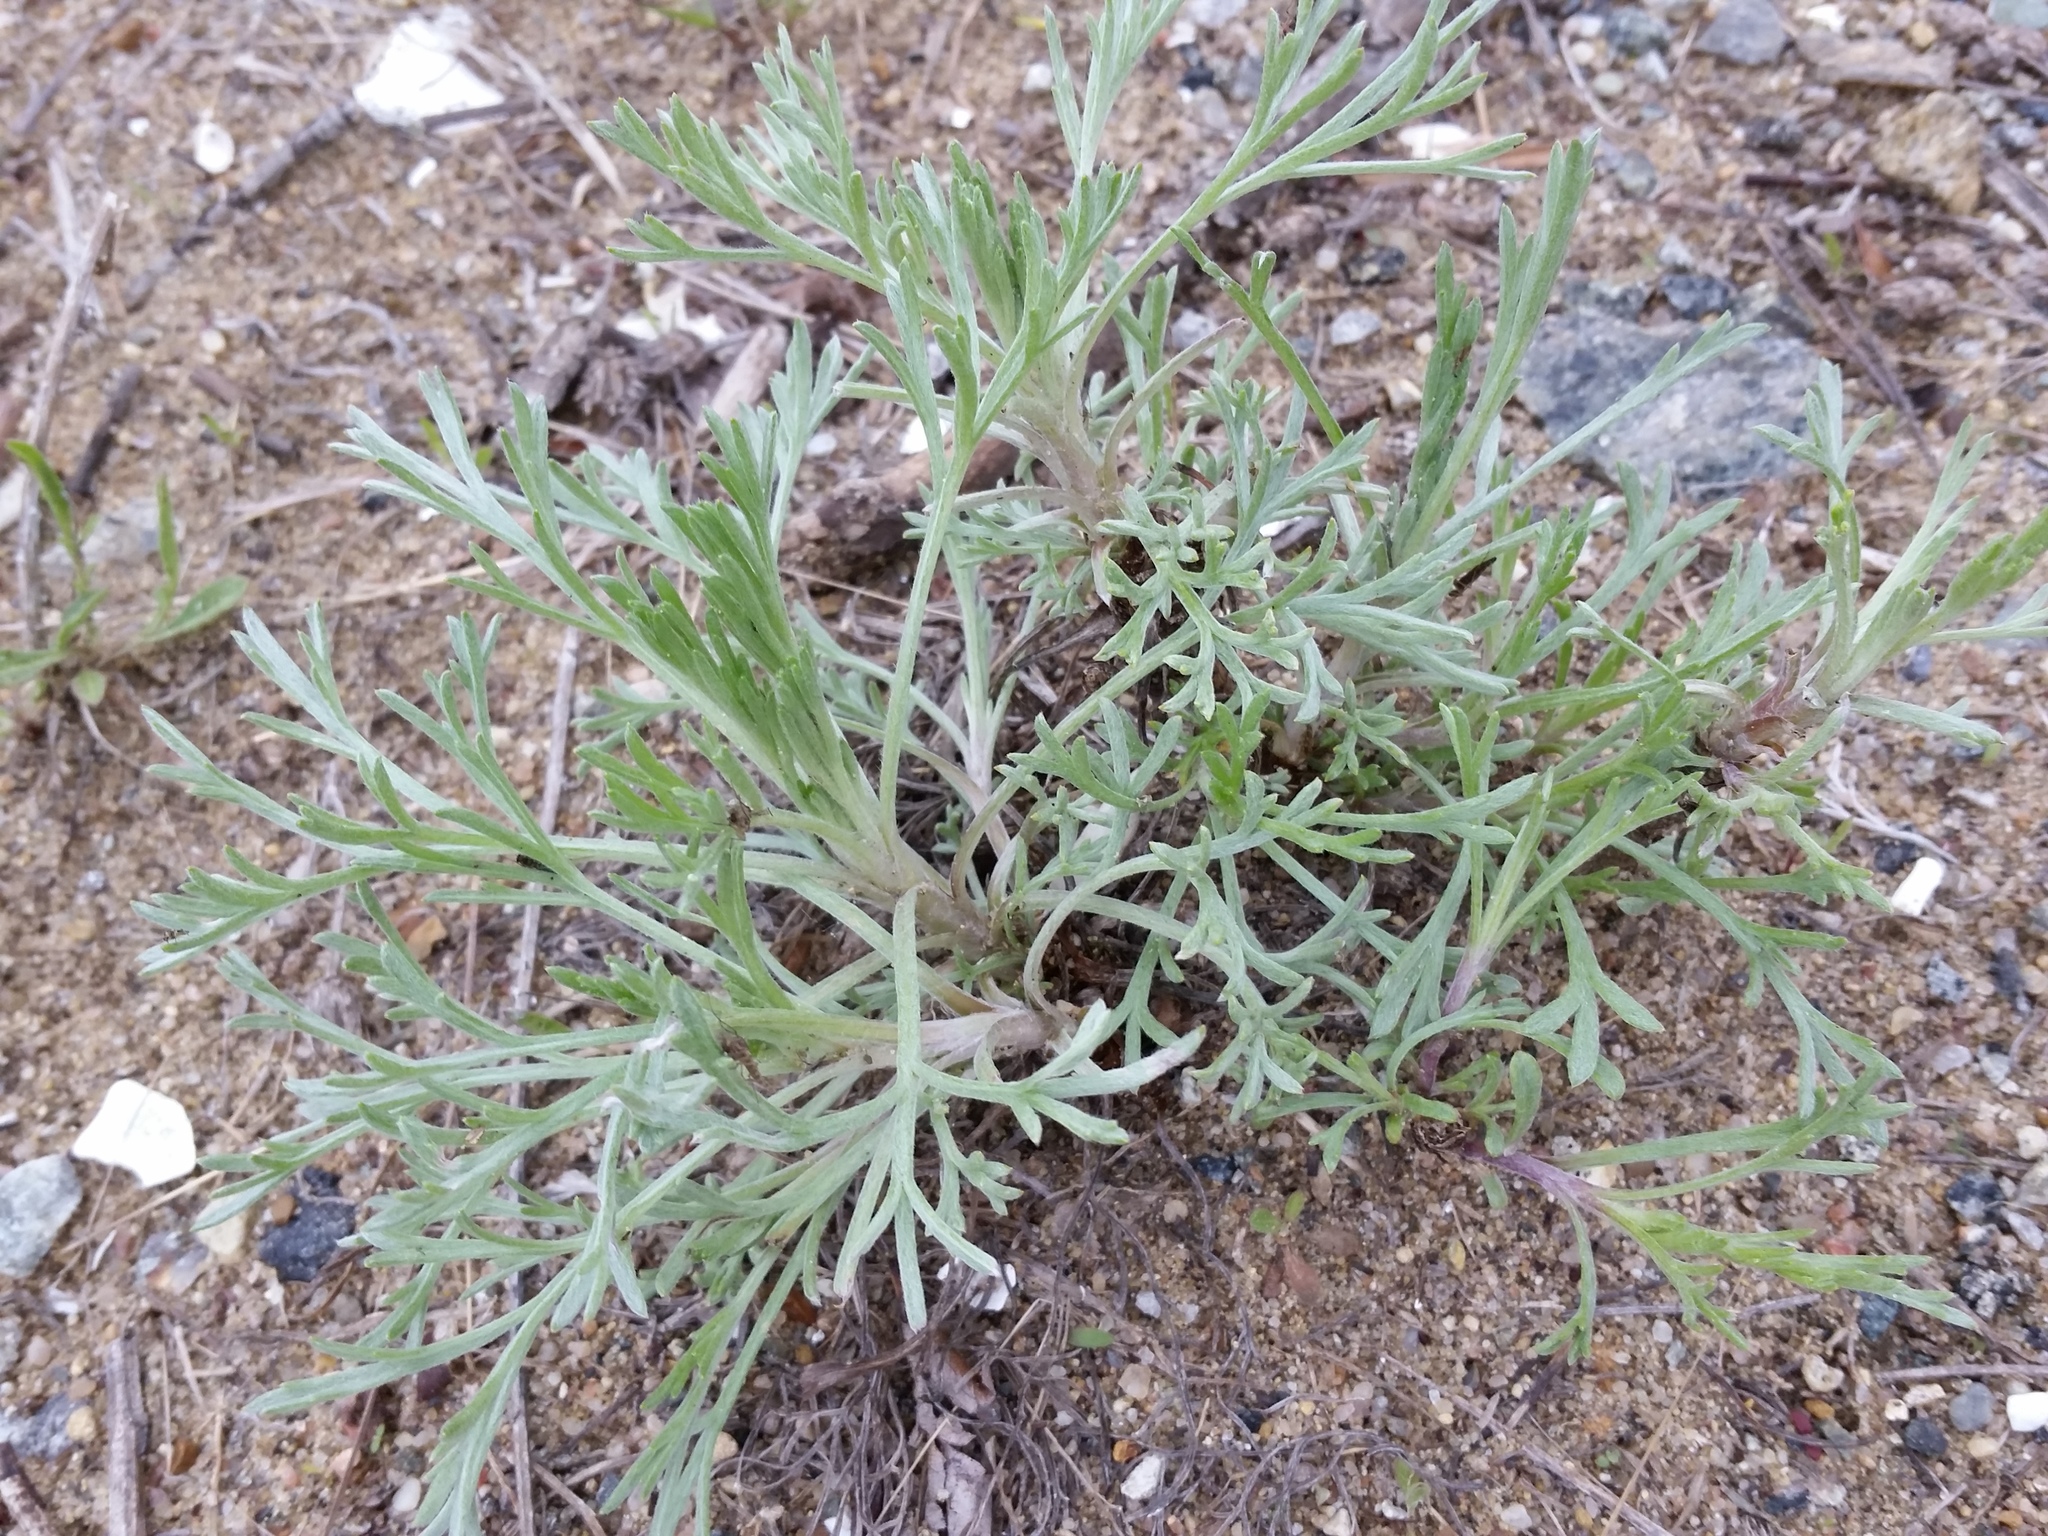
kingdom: Plantae
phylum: Tracheophyta
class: Magnoliopsida
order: Asterales
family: Asteraceae
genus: Artemisia
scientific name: Artemisia campestris
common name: Field wormwood
